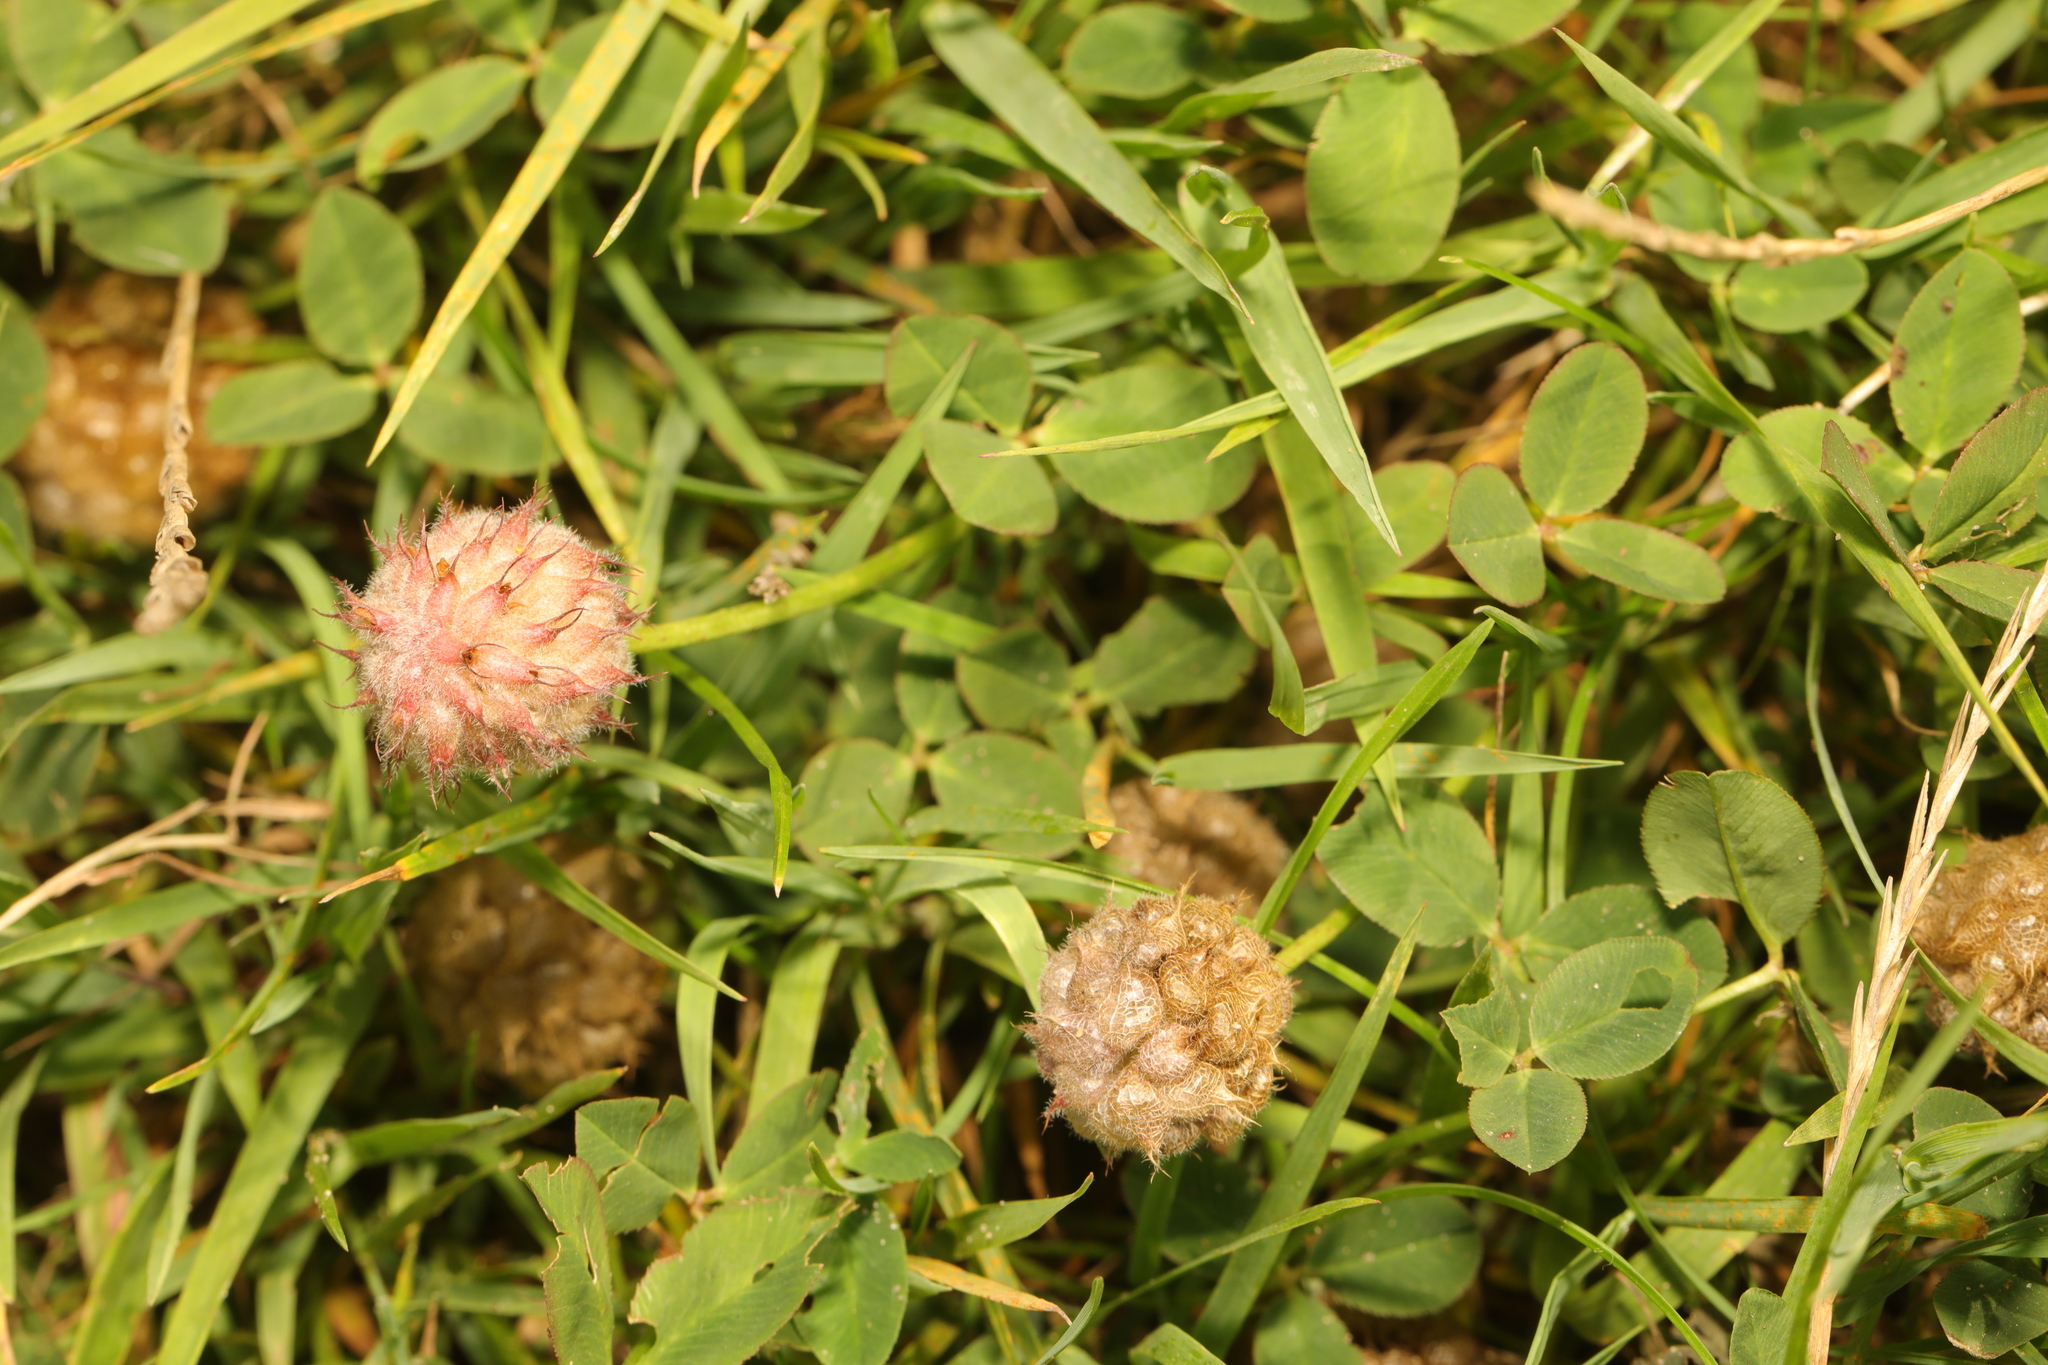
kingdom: Plantae
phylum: Tracheophyta
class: Magnoliopsida
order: Fabales
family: Fabaceae
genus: Trifolium
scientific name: Trifolium fragiferum
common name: Strawberry clover
